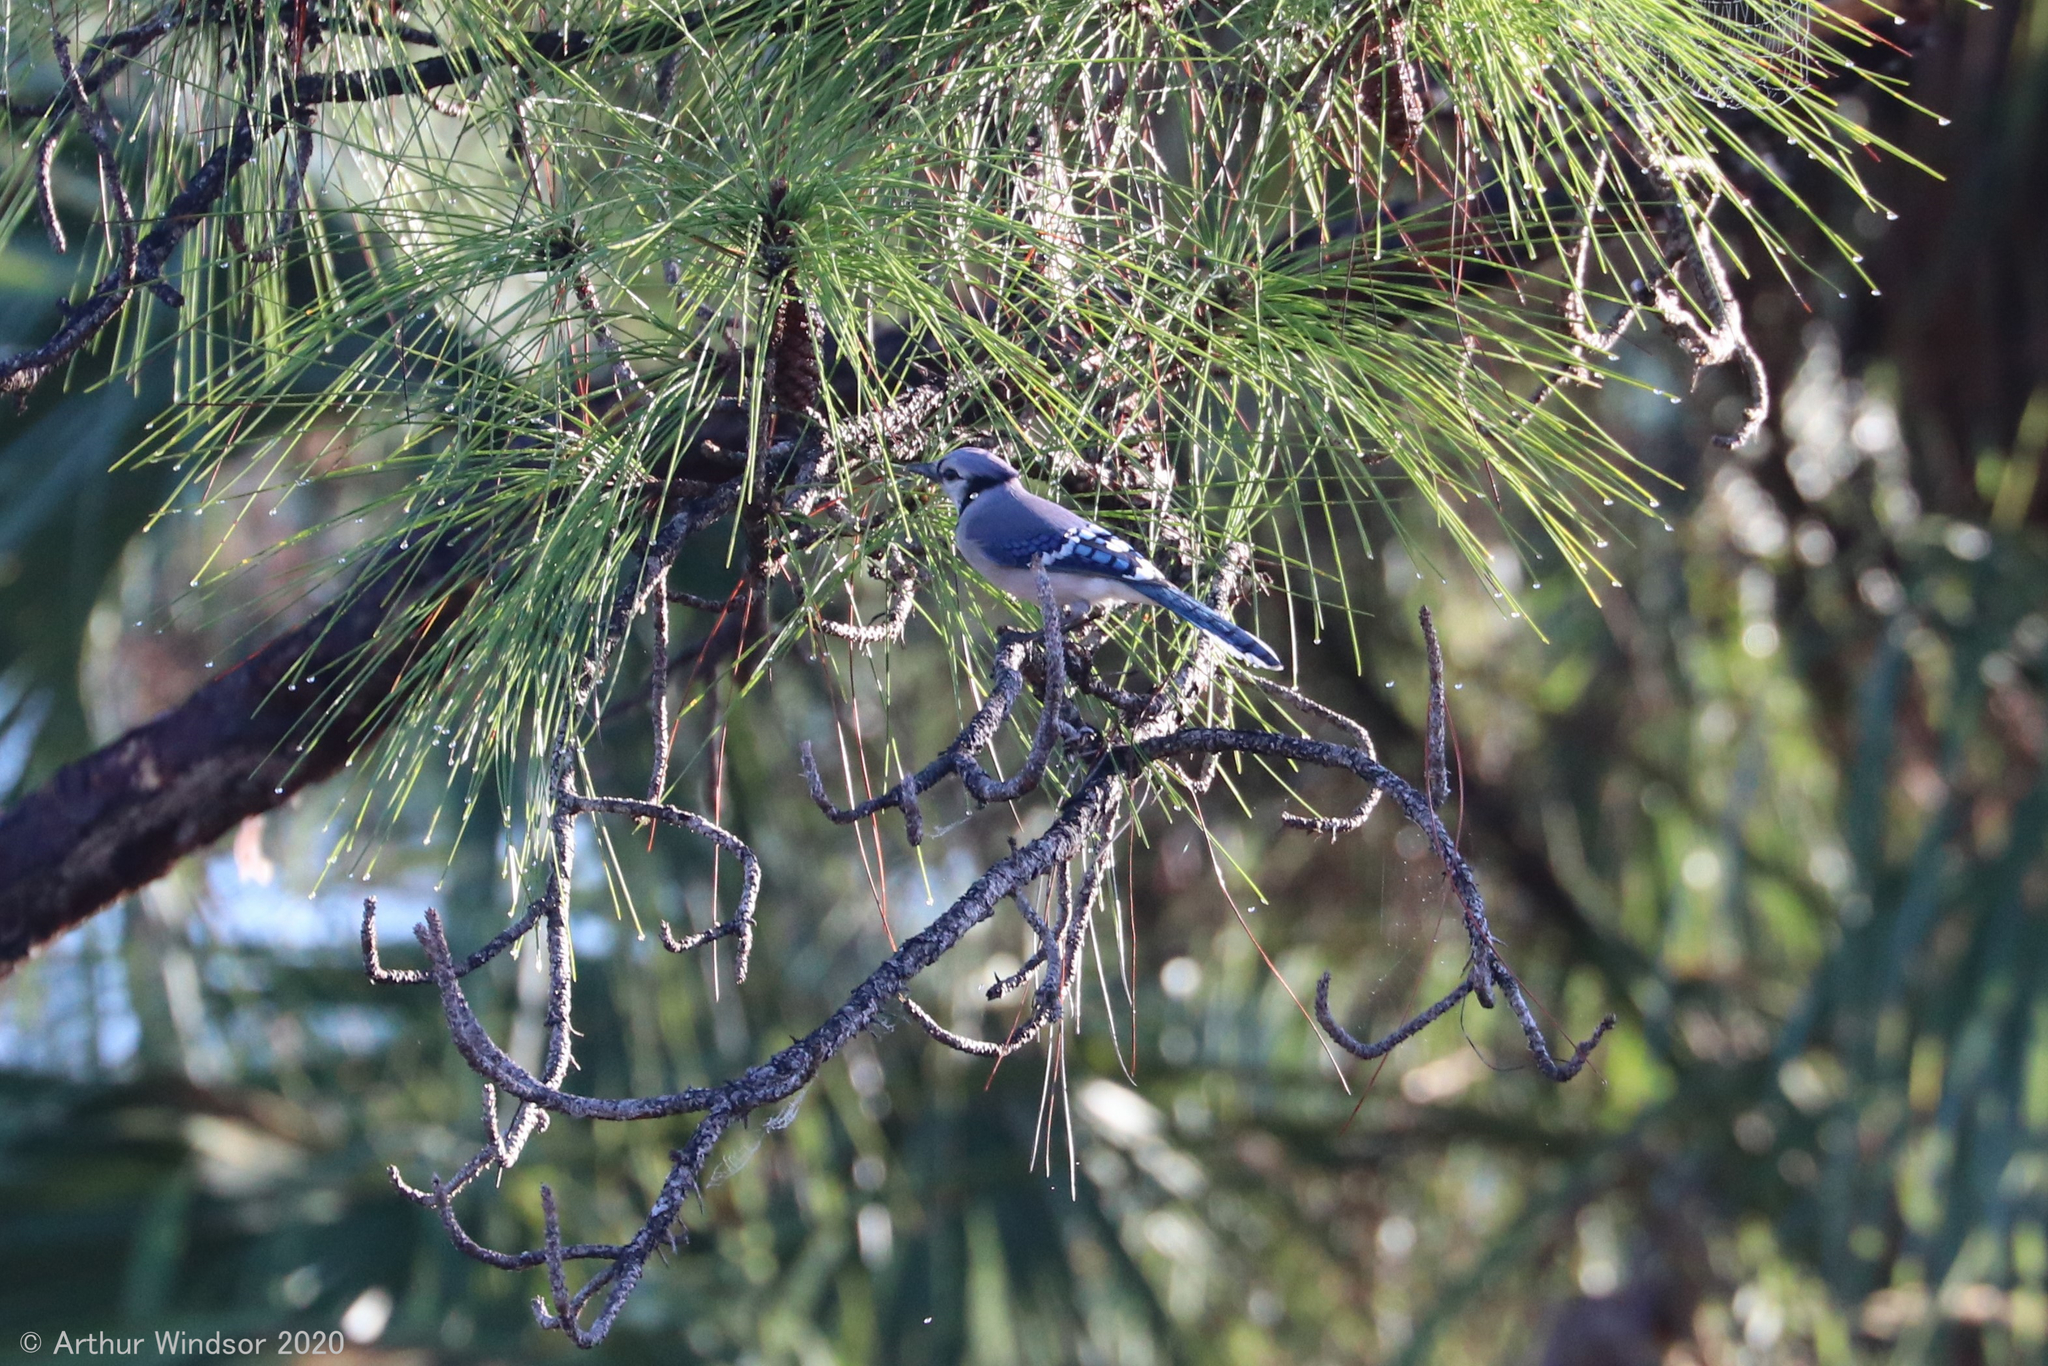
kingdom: Animalia
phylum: Chordata
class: Aves
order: Passeriformes
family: Corvidae
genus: Cyanocitta
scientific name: Cyanocitta cristata
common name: Blue jay
